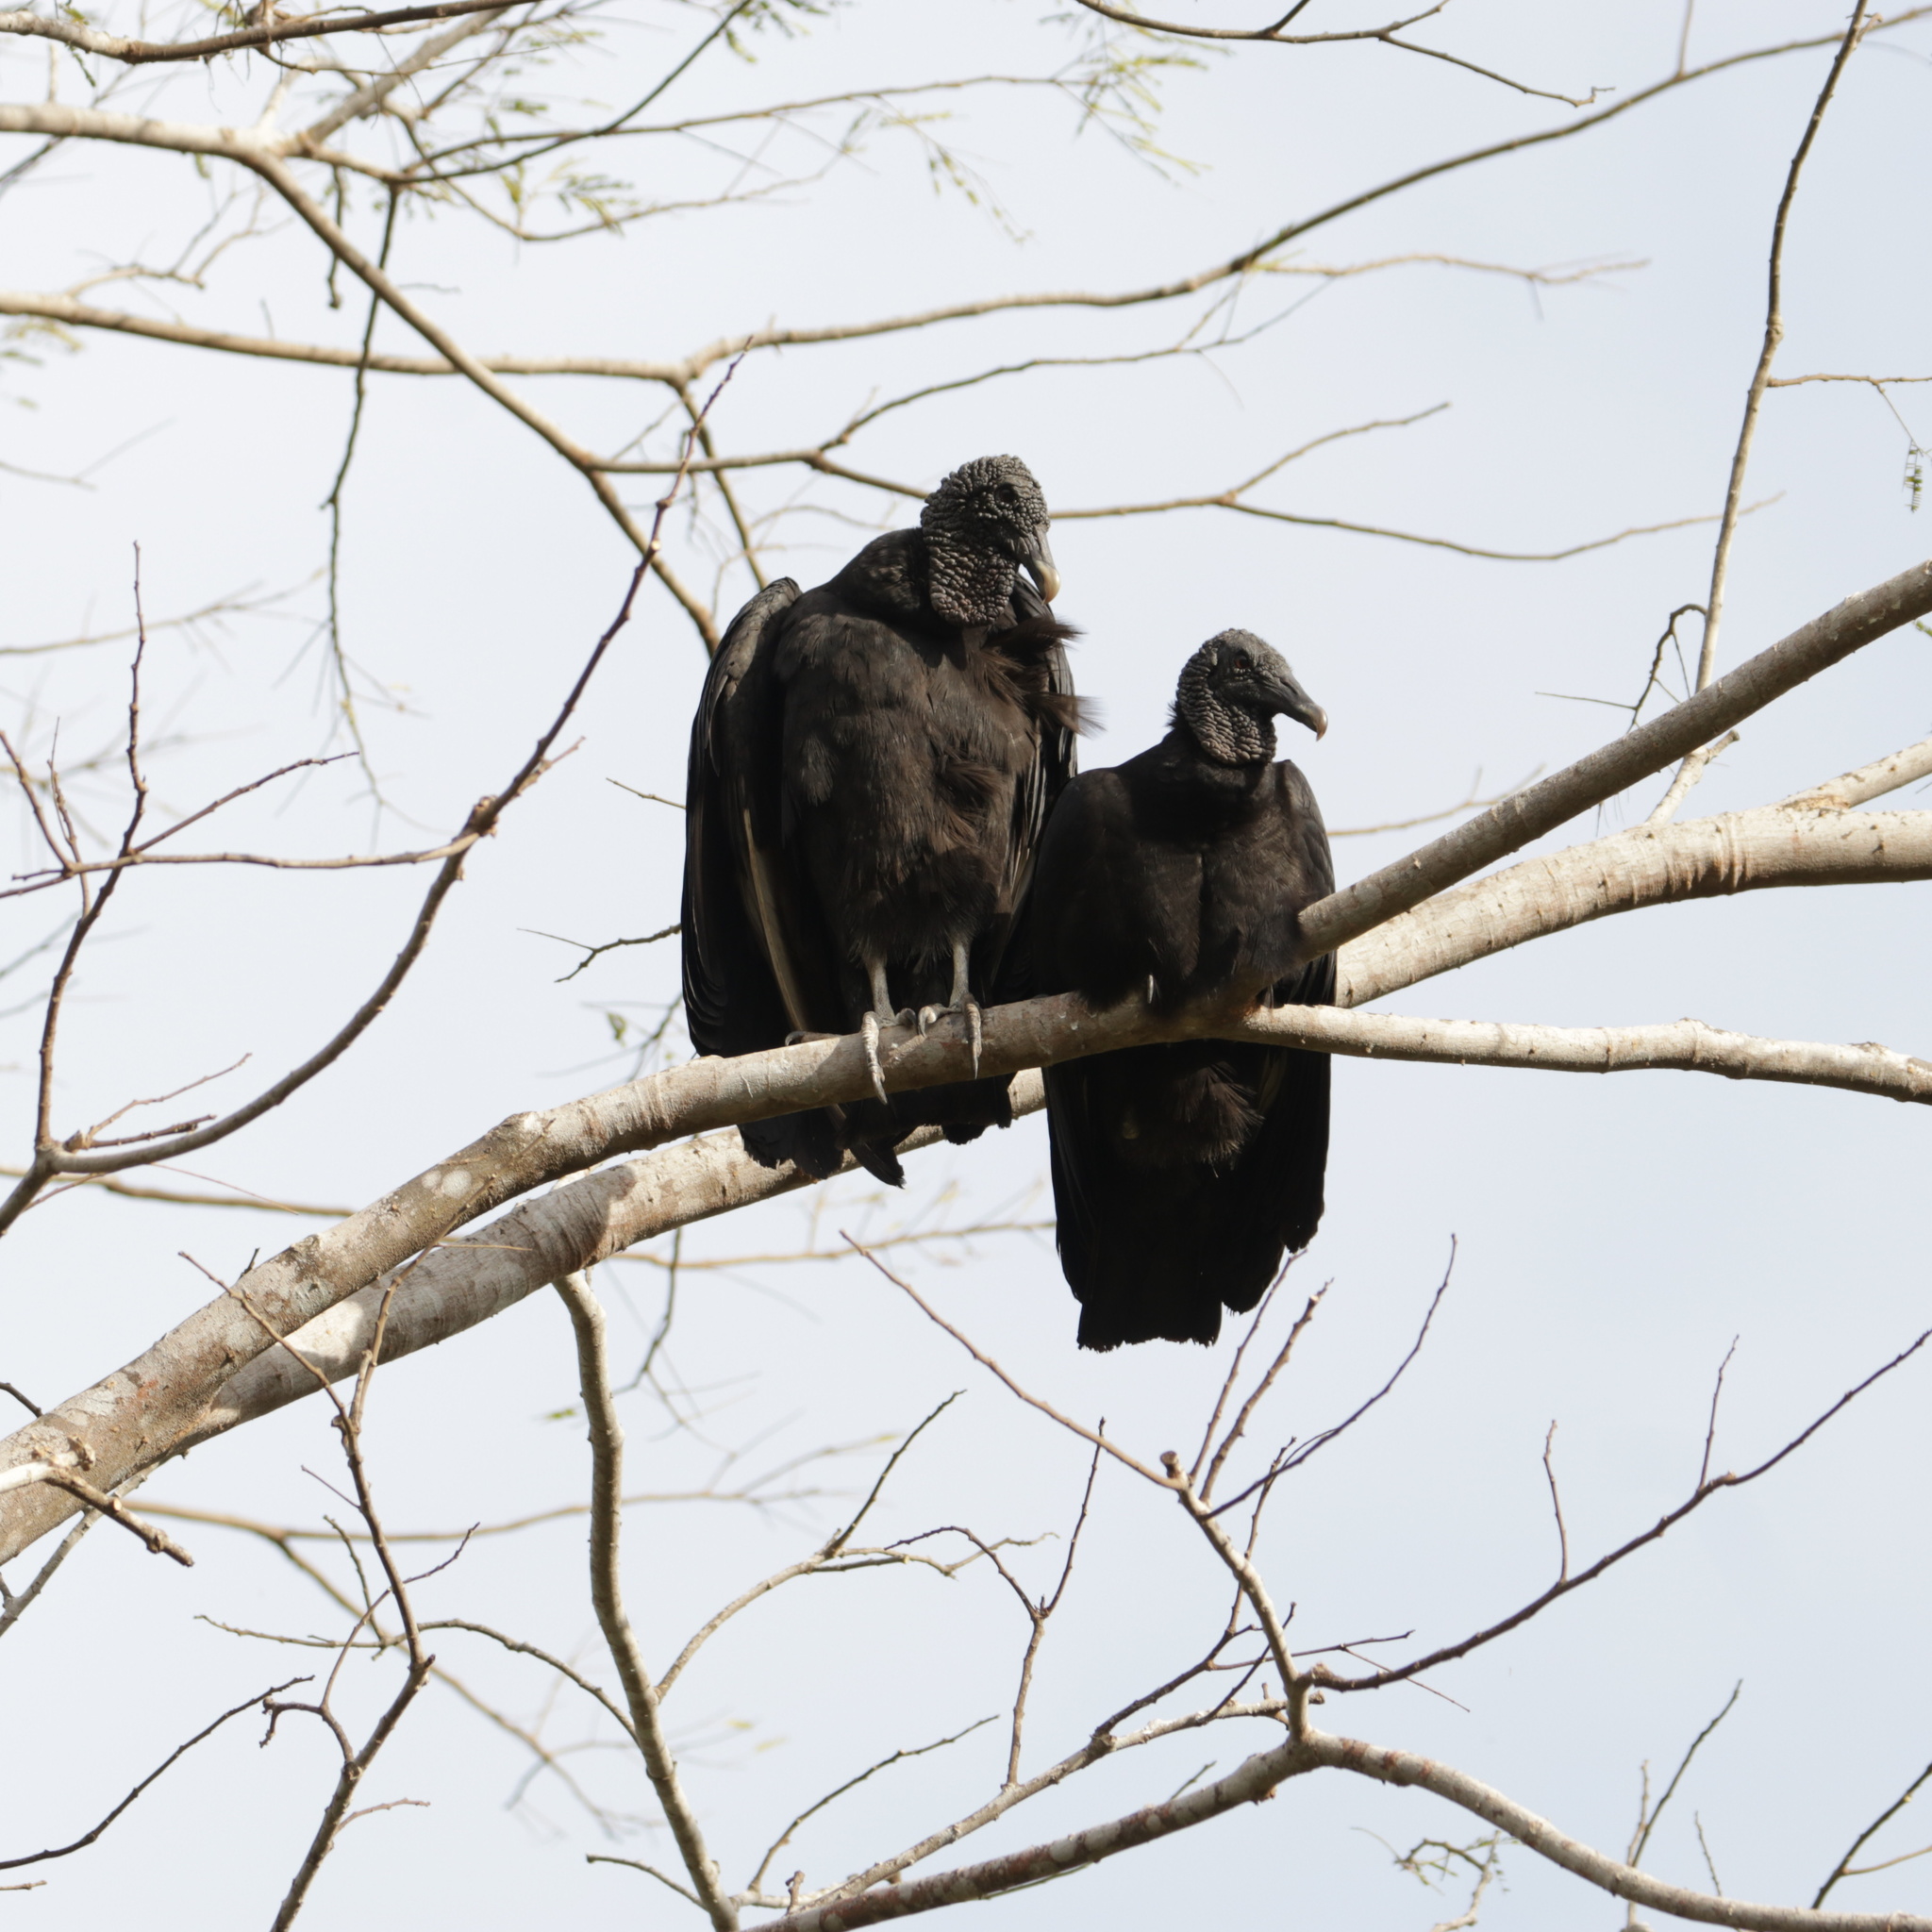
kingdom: Animalia
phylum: Chordata
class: Aves
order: Accipitriformes
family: Cathartidae
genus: Coragyps
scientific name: Coragyps atratus
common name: Black vulture
